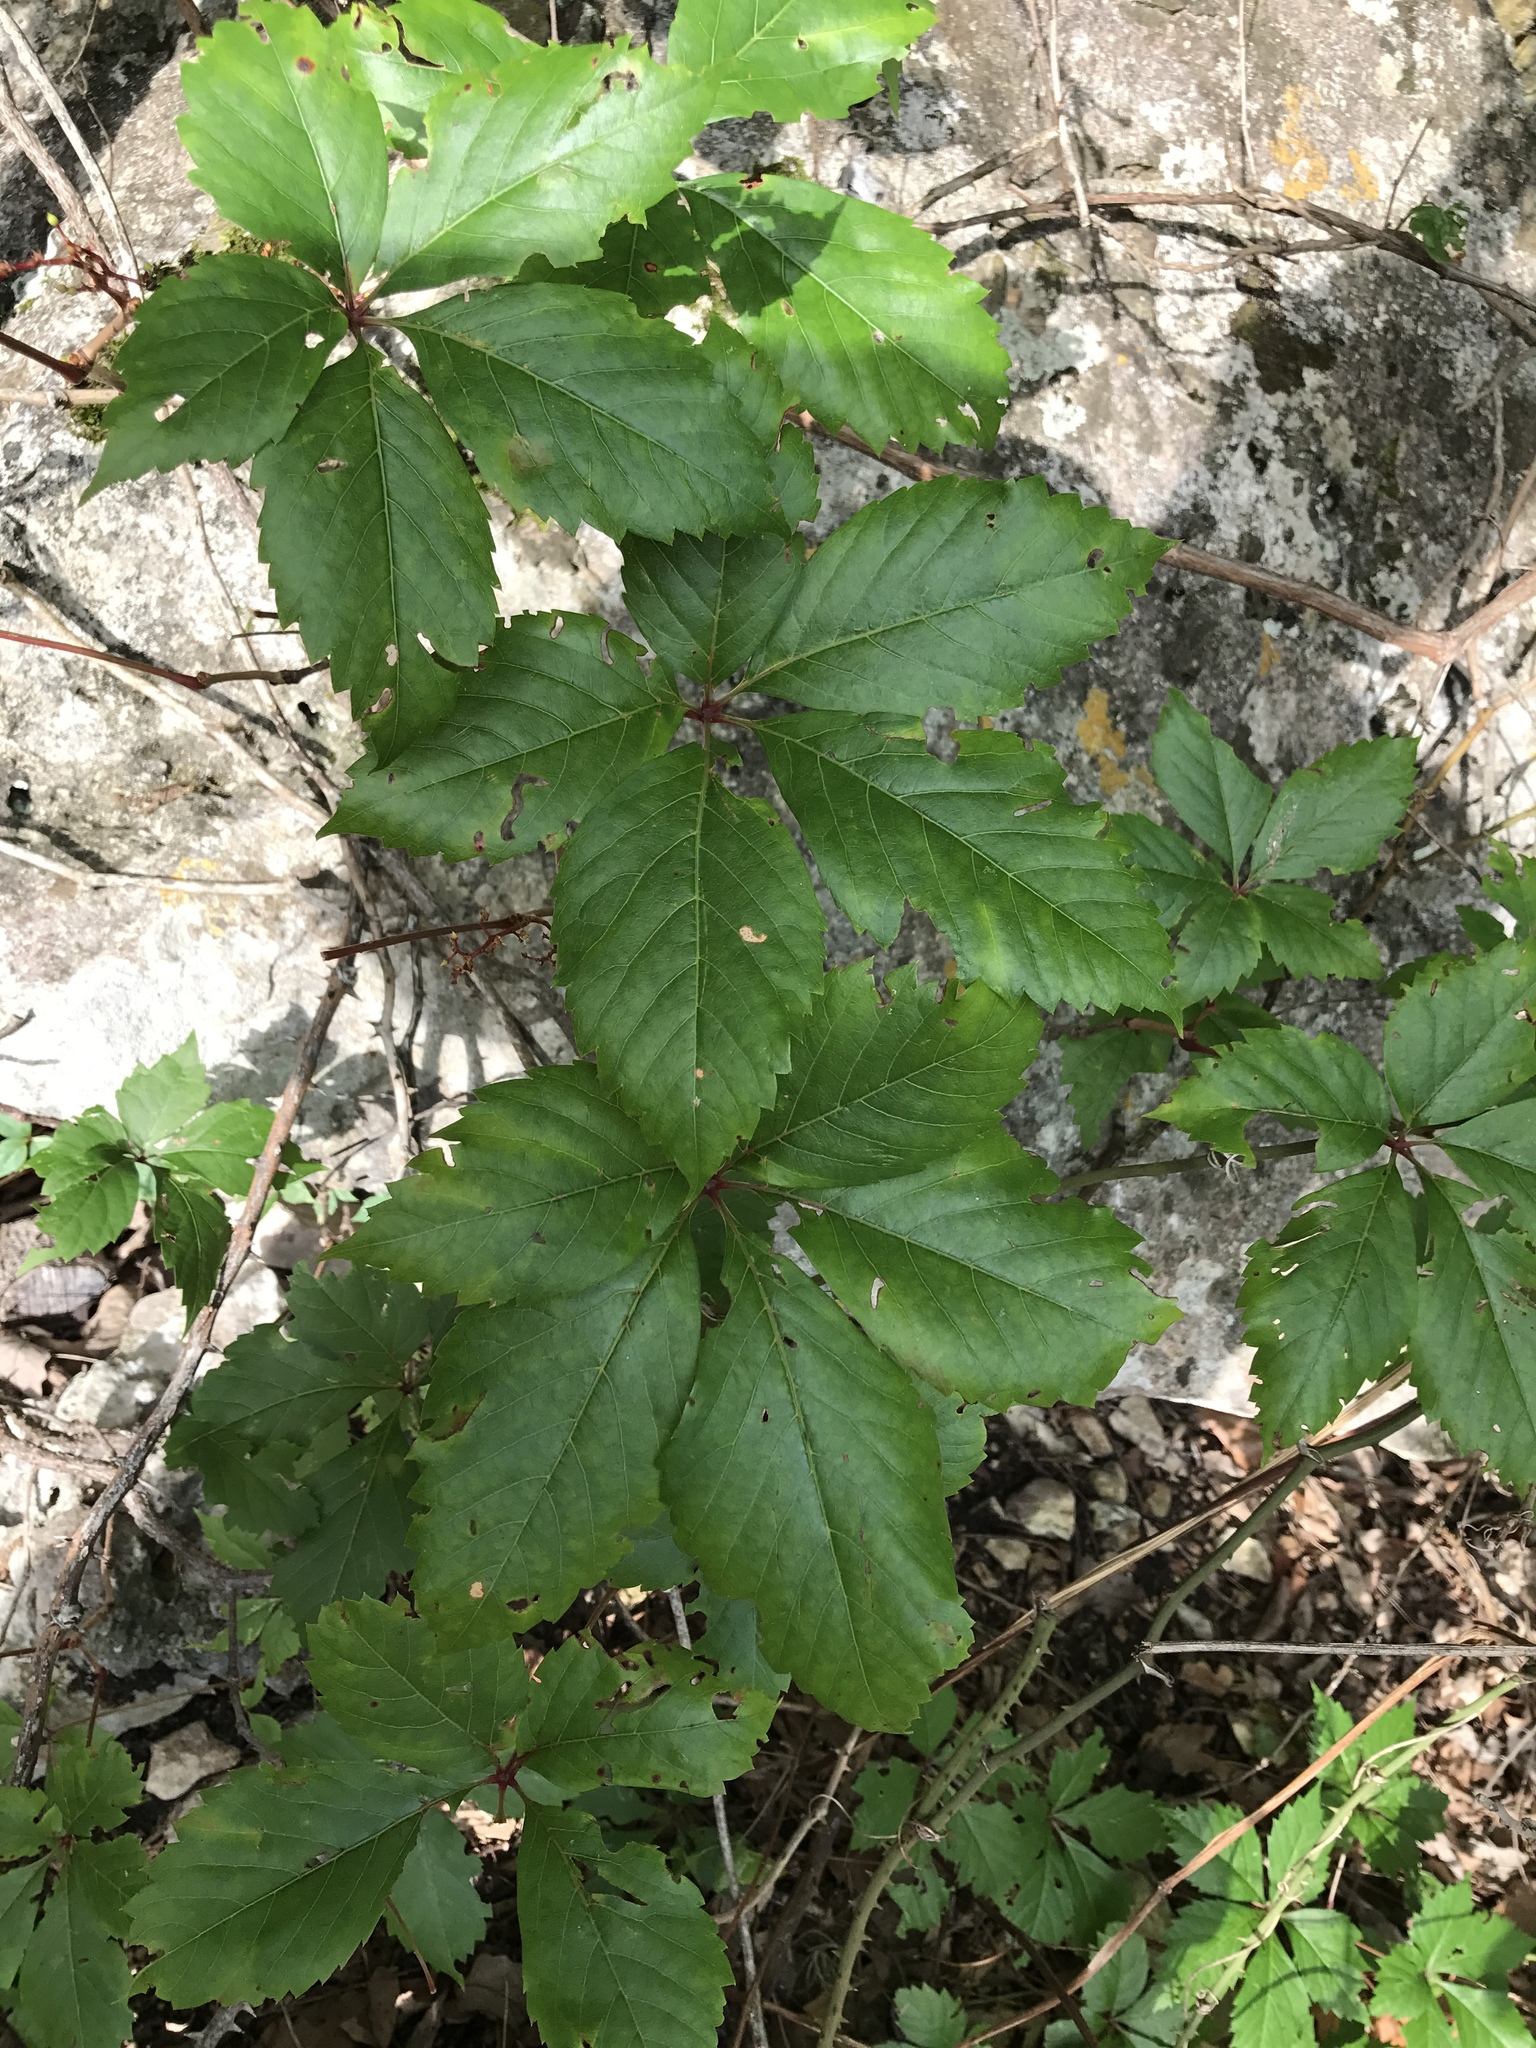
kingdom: Plantae
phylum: Tracheophyta
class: Magnoliopsida
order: Vitales
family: Vitaceae
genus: Parthenocissus
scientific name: Parthenocissus quinquefolia
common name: Virginia-creeper
